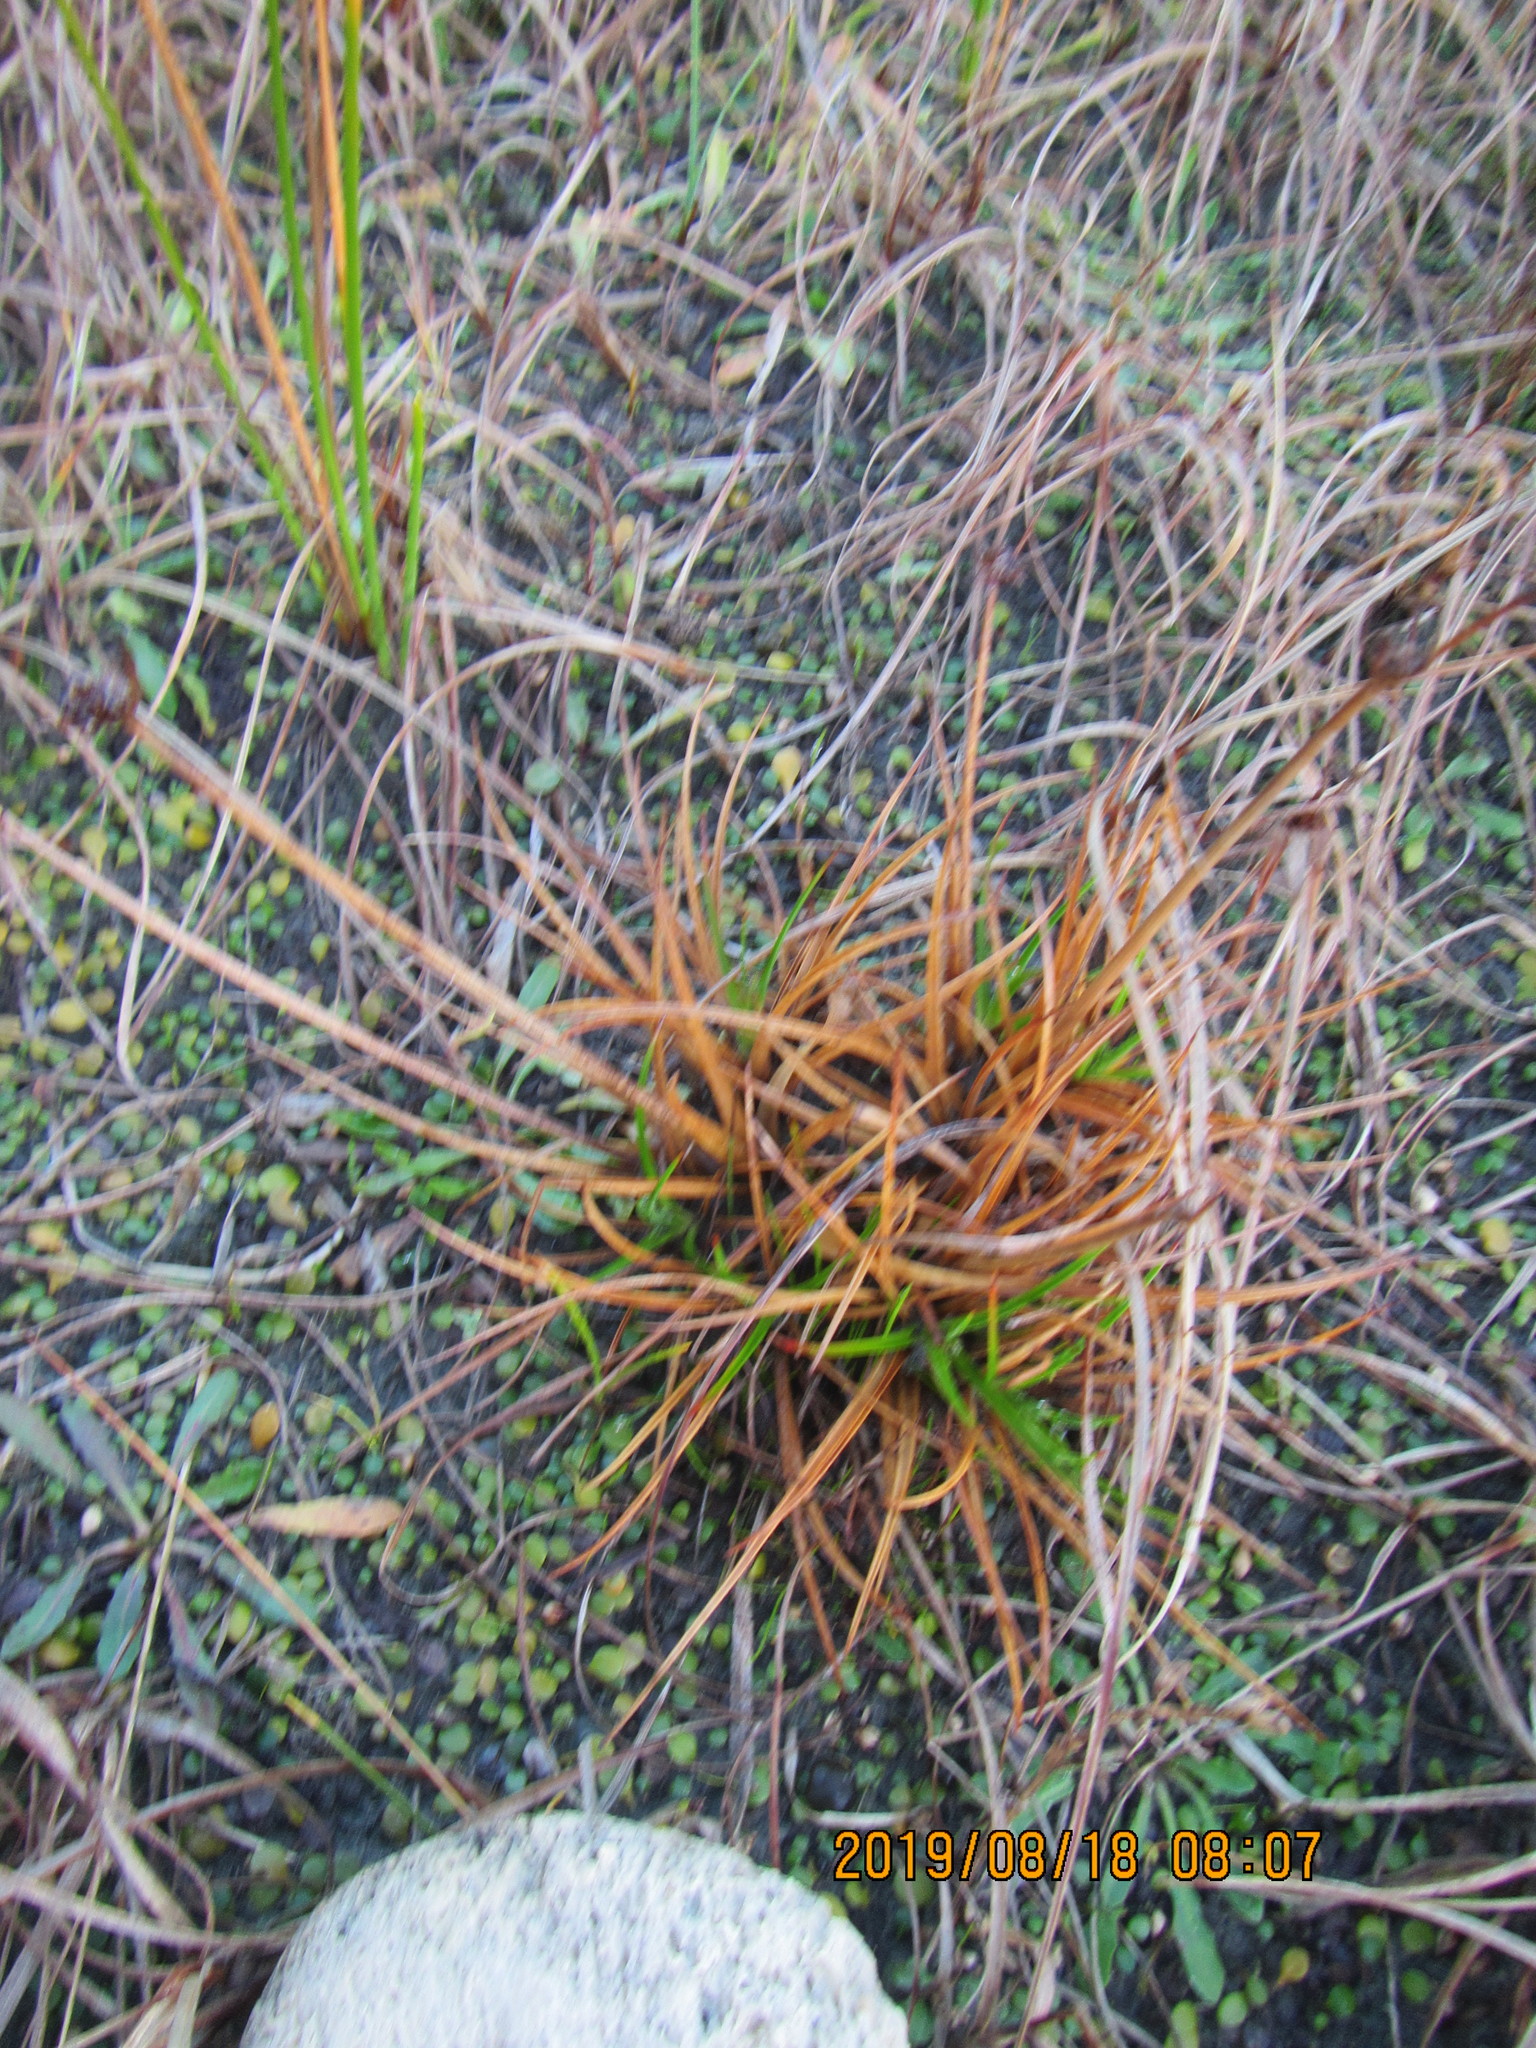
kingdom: Plantae
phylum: Tracheophyta
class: Liliopsida
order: Poales
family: Juncaceae
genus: Juncus
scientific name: Juncus caespiticius
